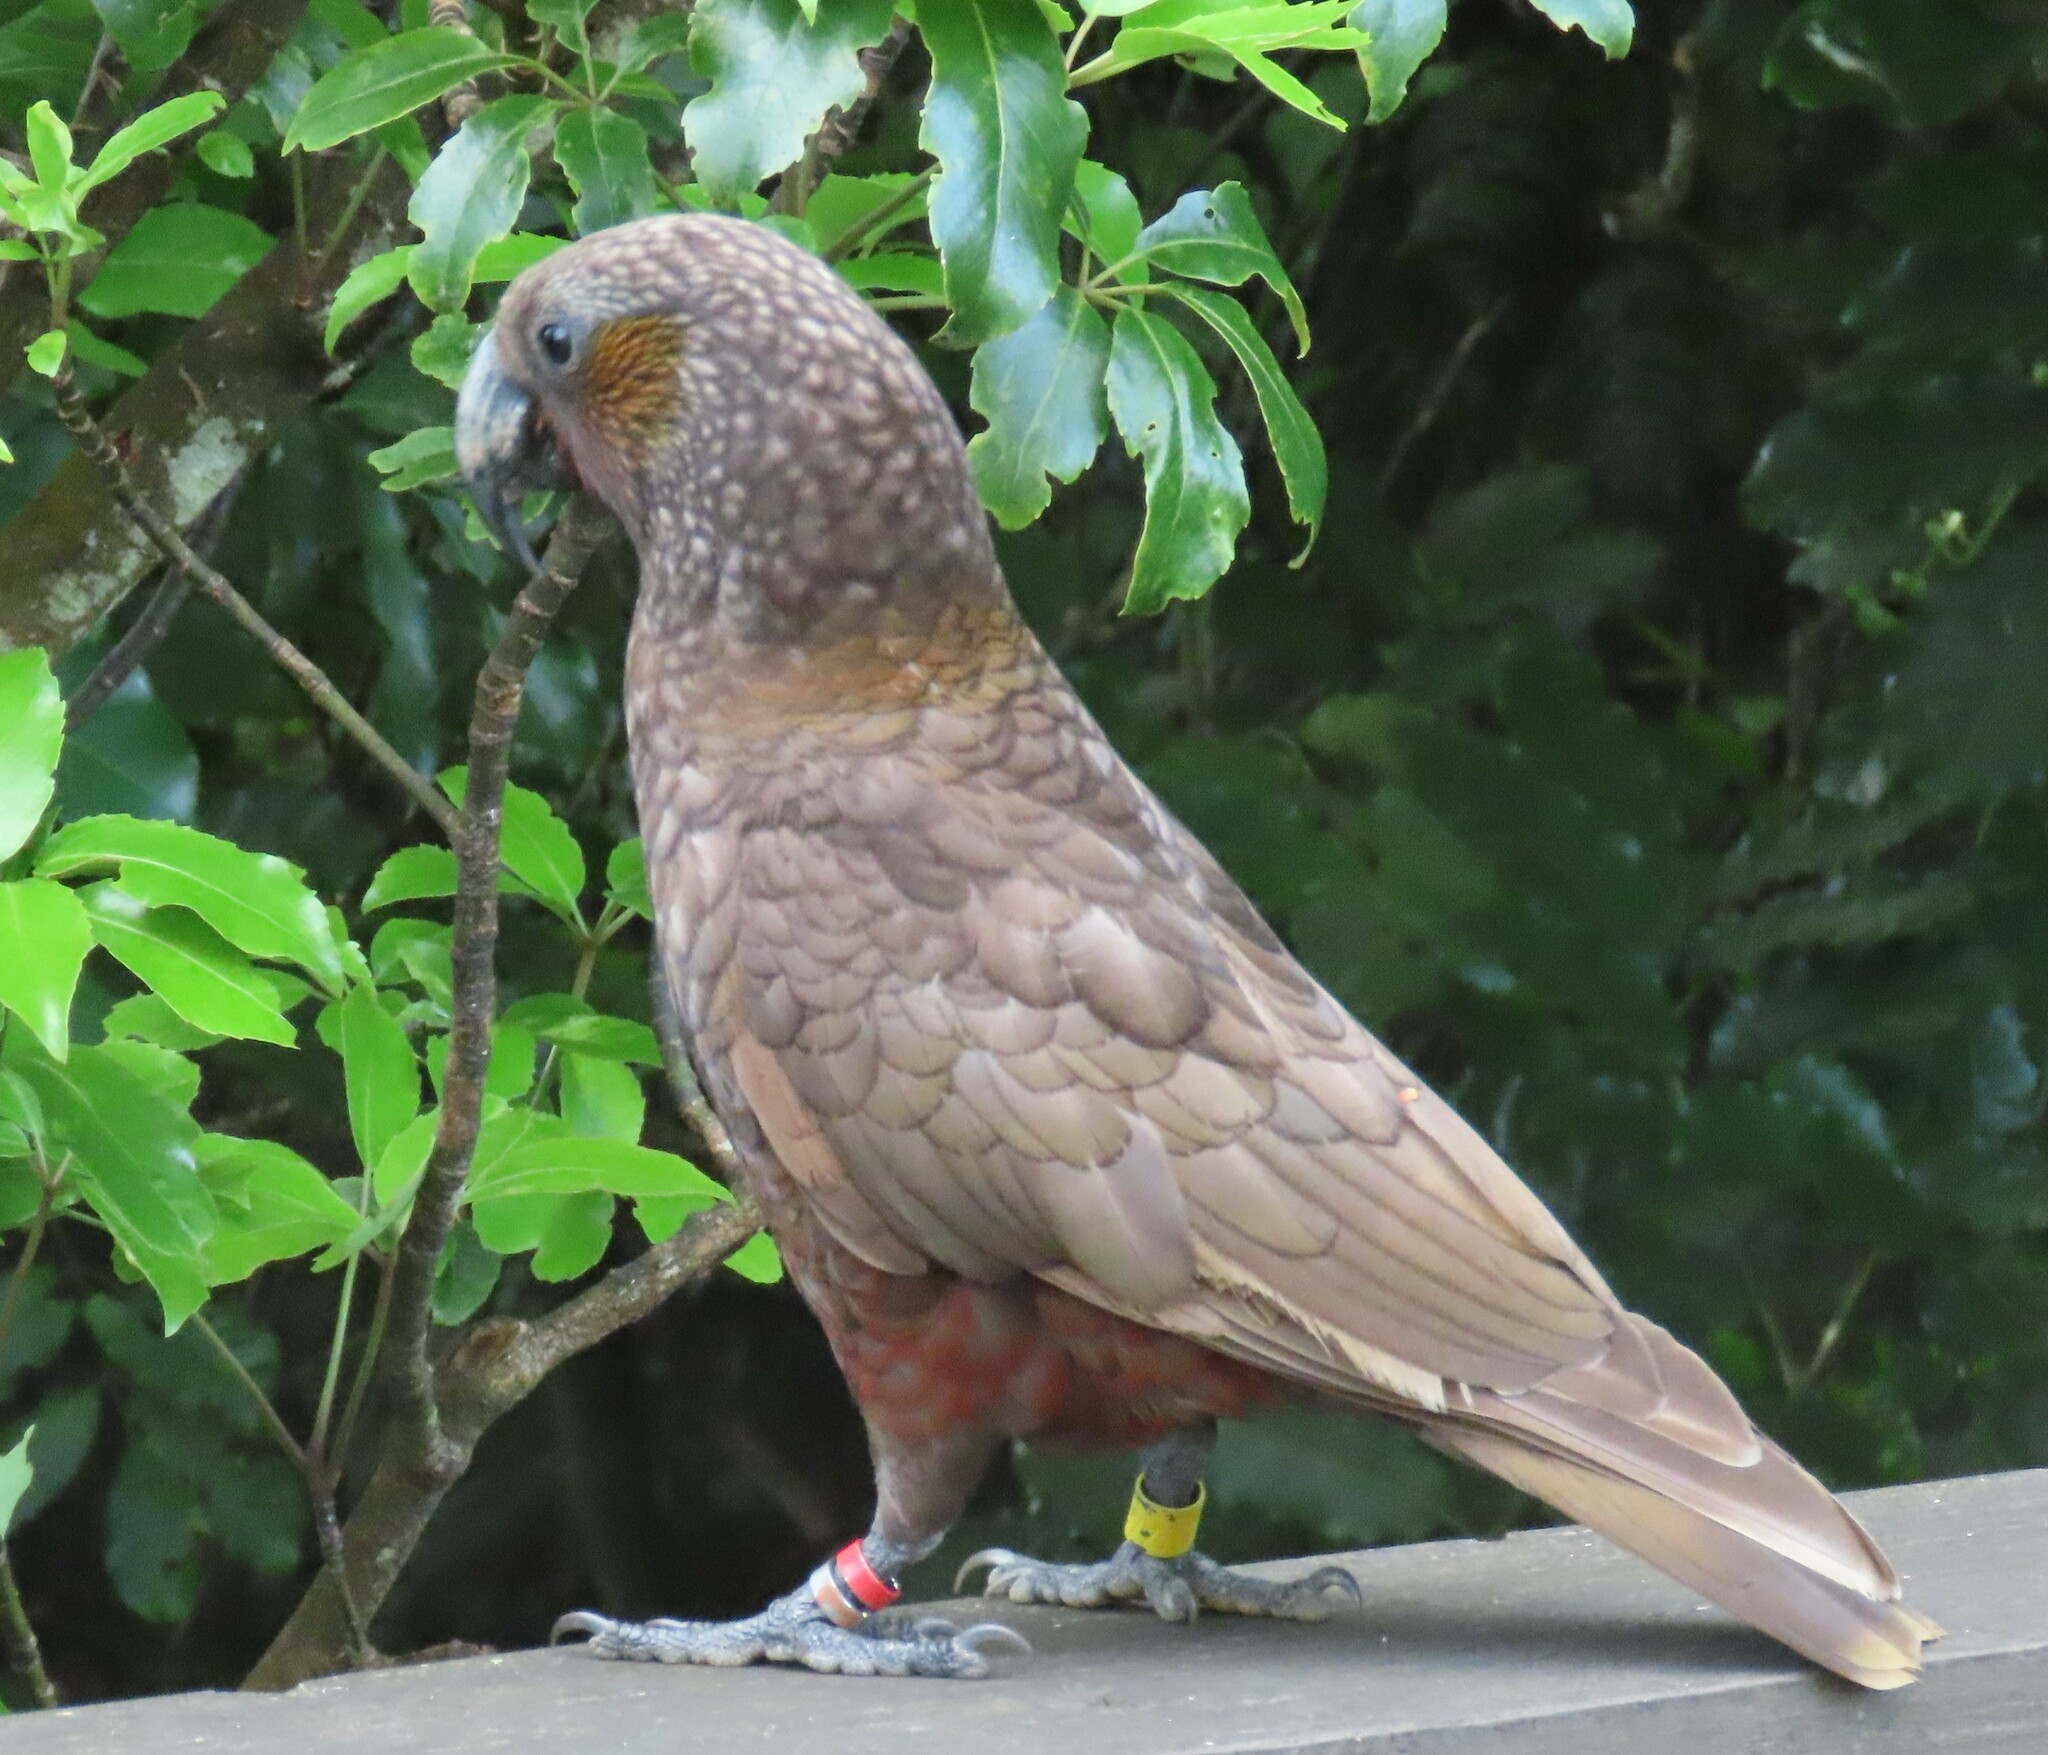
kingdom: Animalia
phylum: Chordata
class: Aves
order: Psittaciformes
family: Psittacidae
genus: Nestor
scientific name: Nestor meridionalis
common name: New zealand kaka
